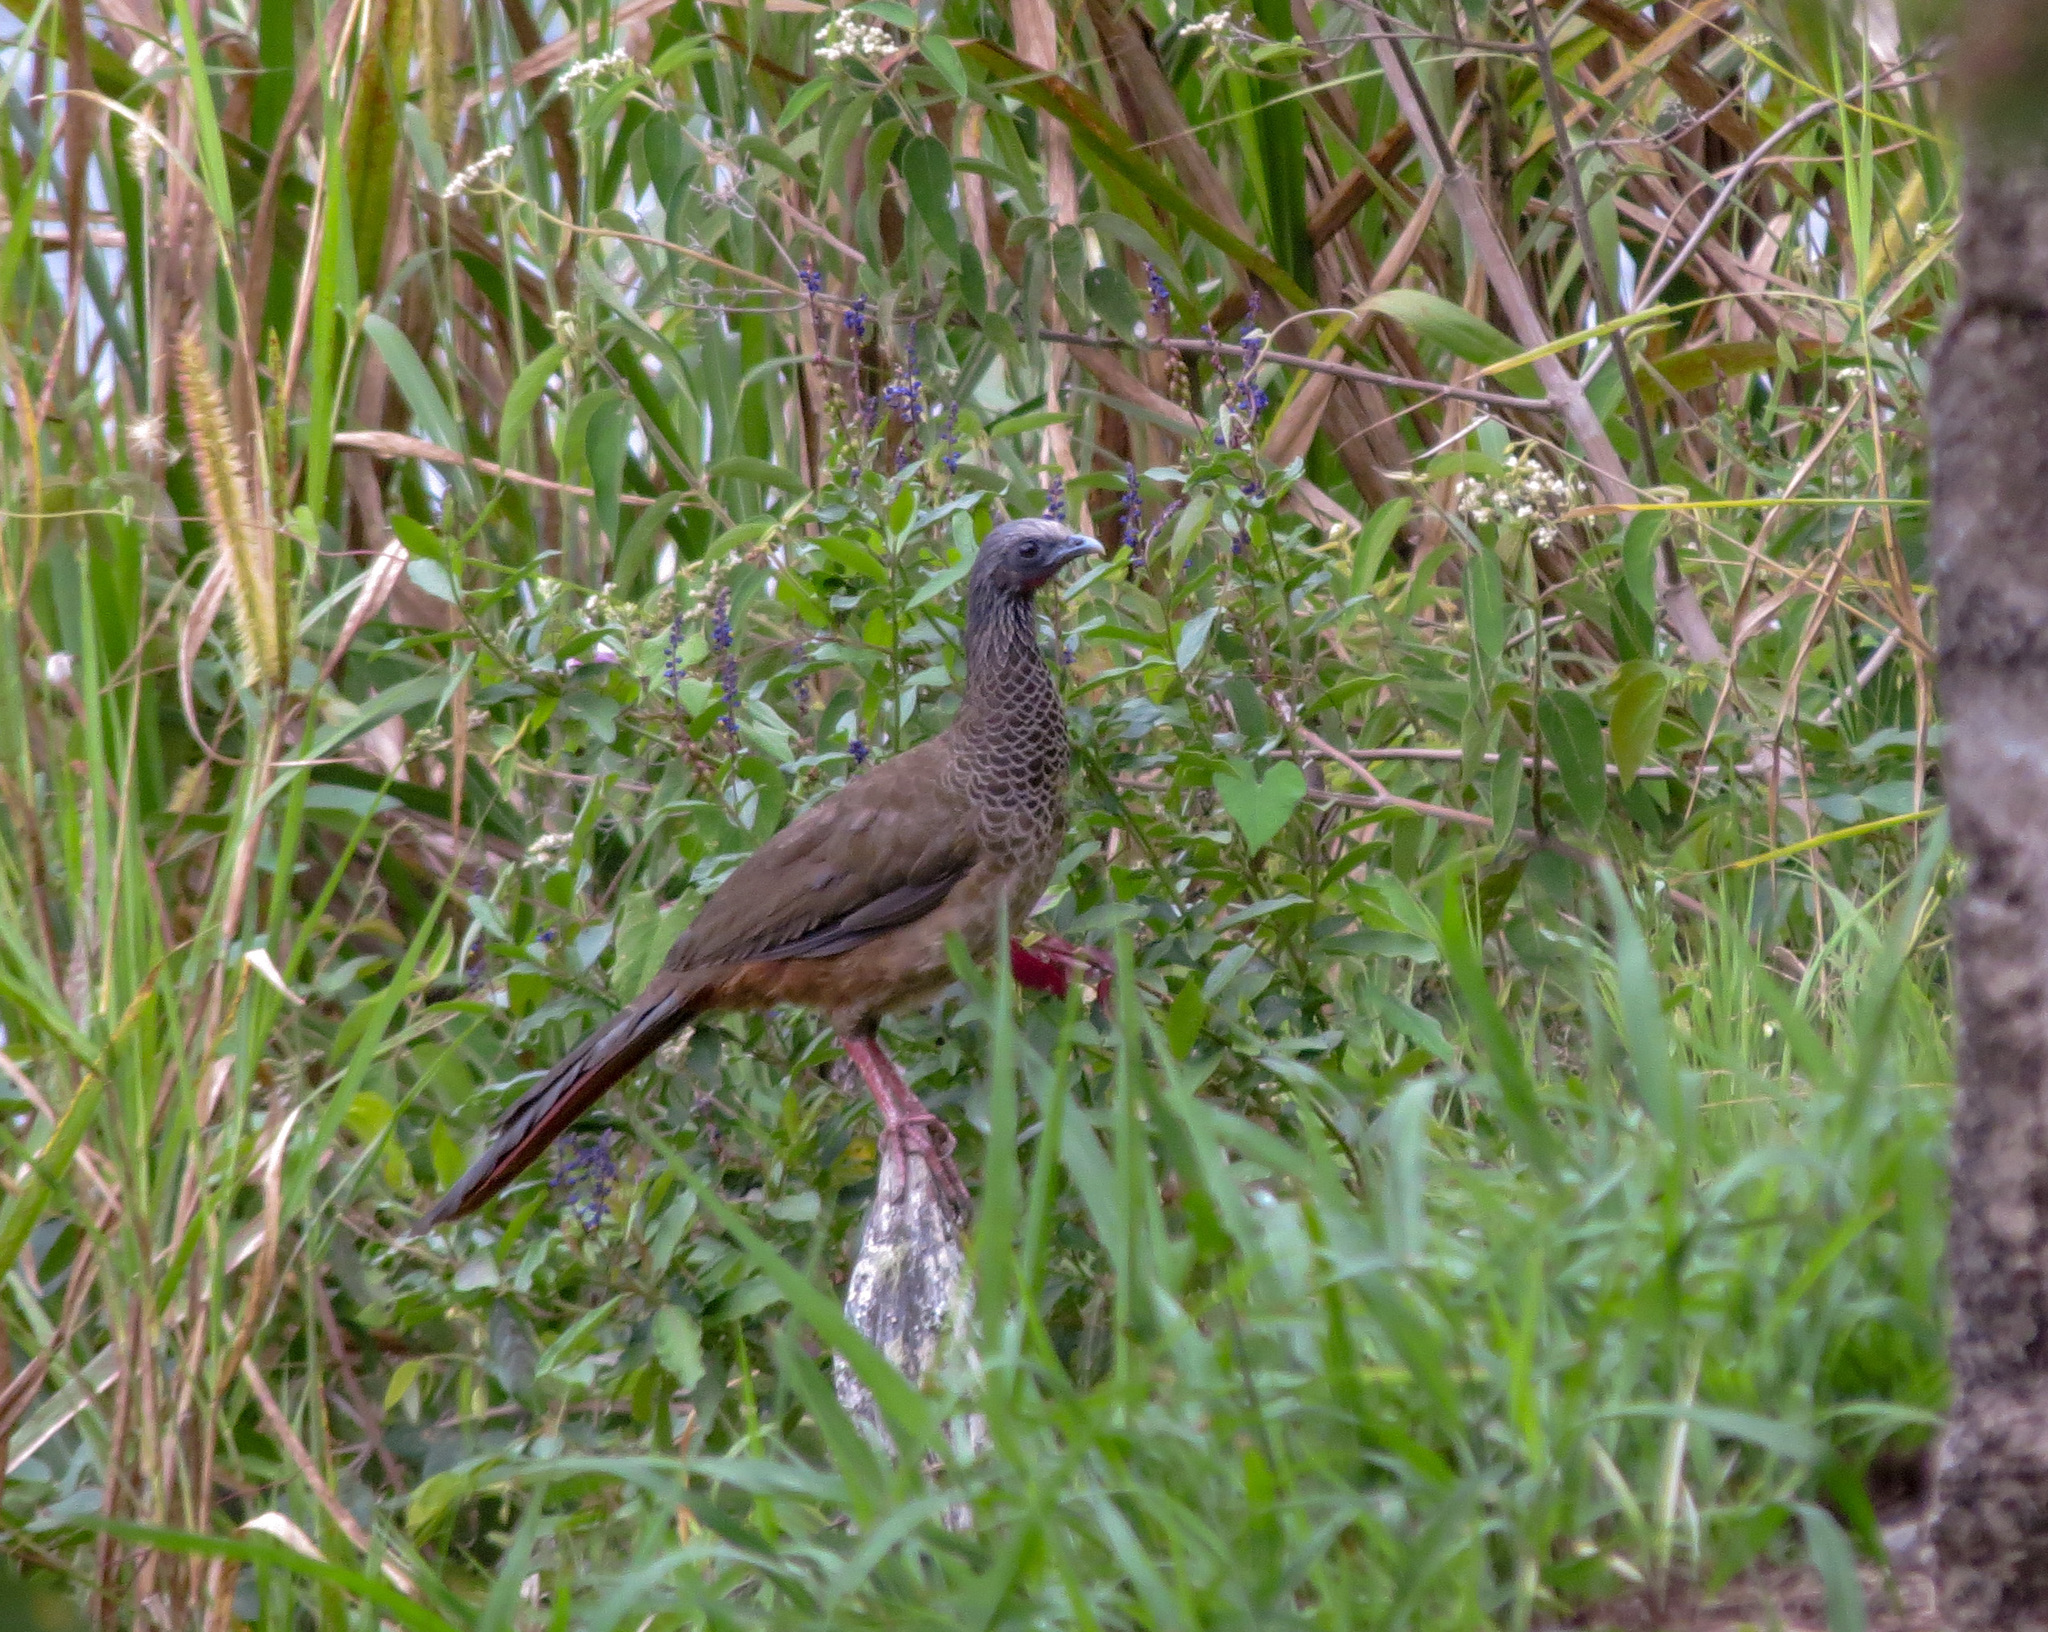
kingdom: Animalia
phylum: Chordata
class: Aves
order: Galliformes
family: Cracidae
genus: Ortalis
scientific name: Ortalis columbiana
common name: Colombian chachalaca
